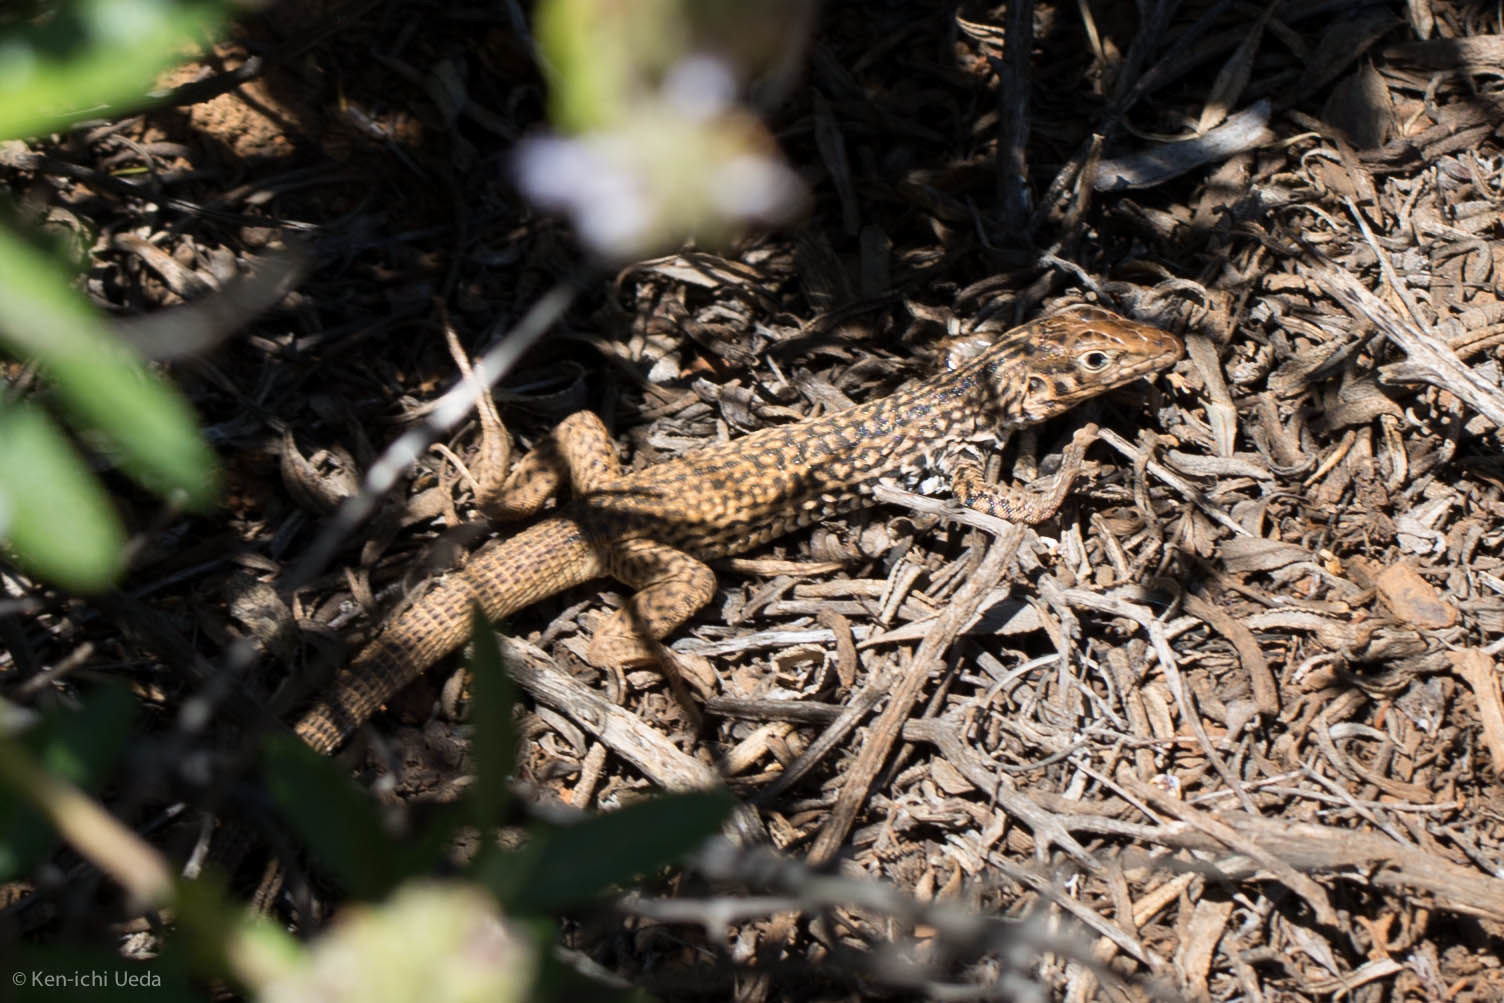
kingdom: Animalia
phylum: Chordata
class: Squamata
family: Teiidae
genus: Aspidoscelis
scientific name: Aspidoscelis tigris
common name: Tiger whiptail
